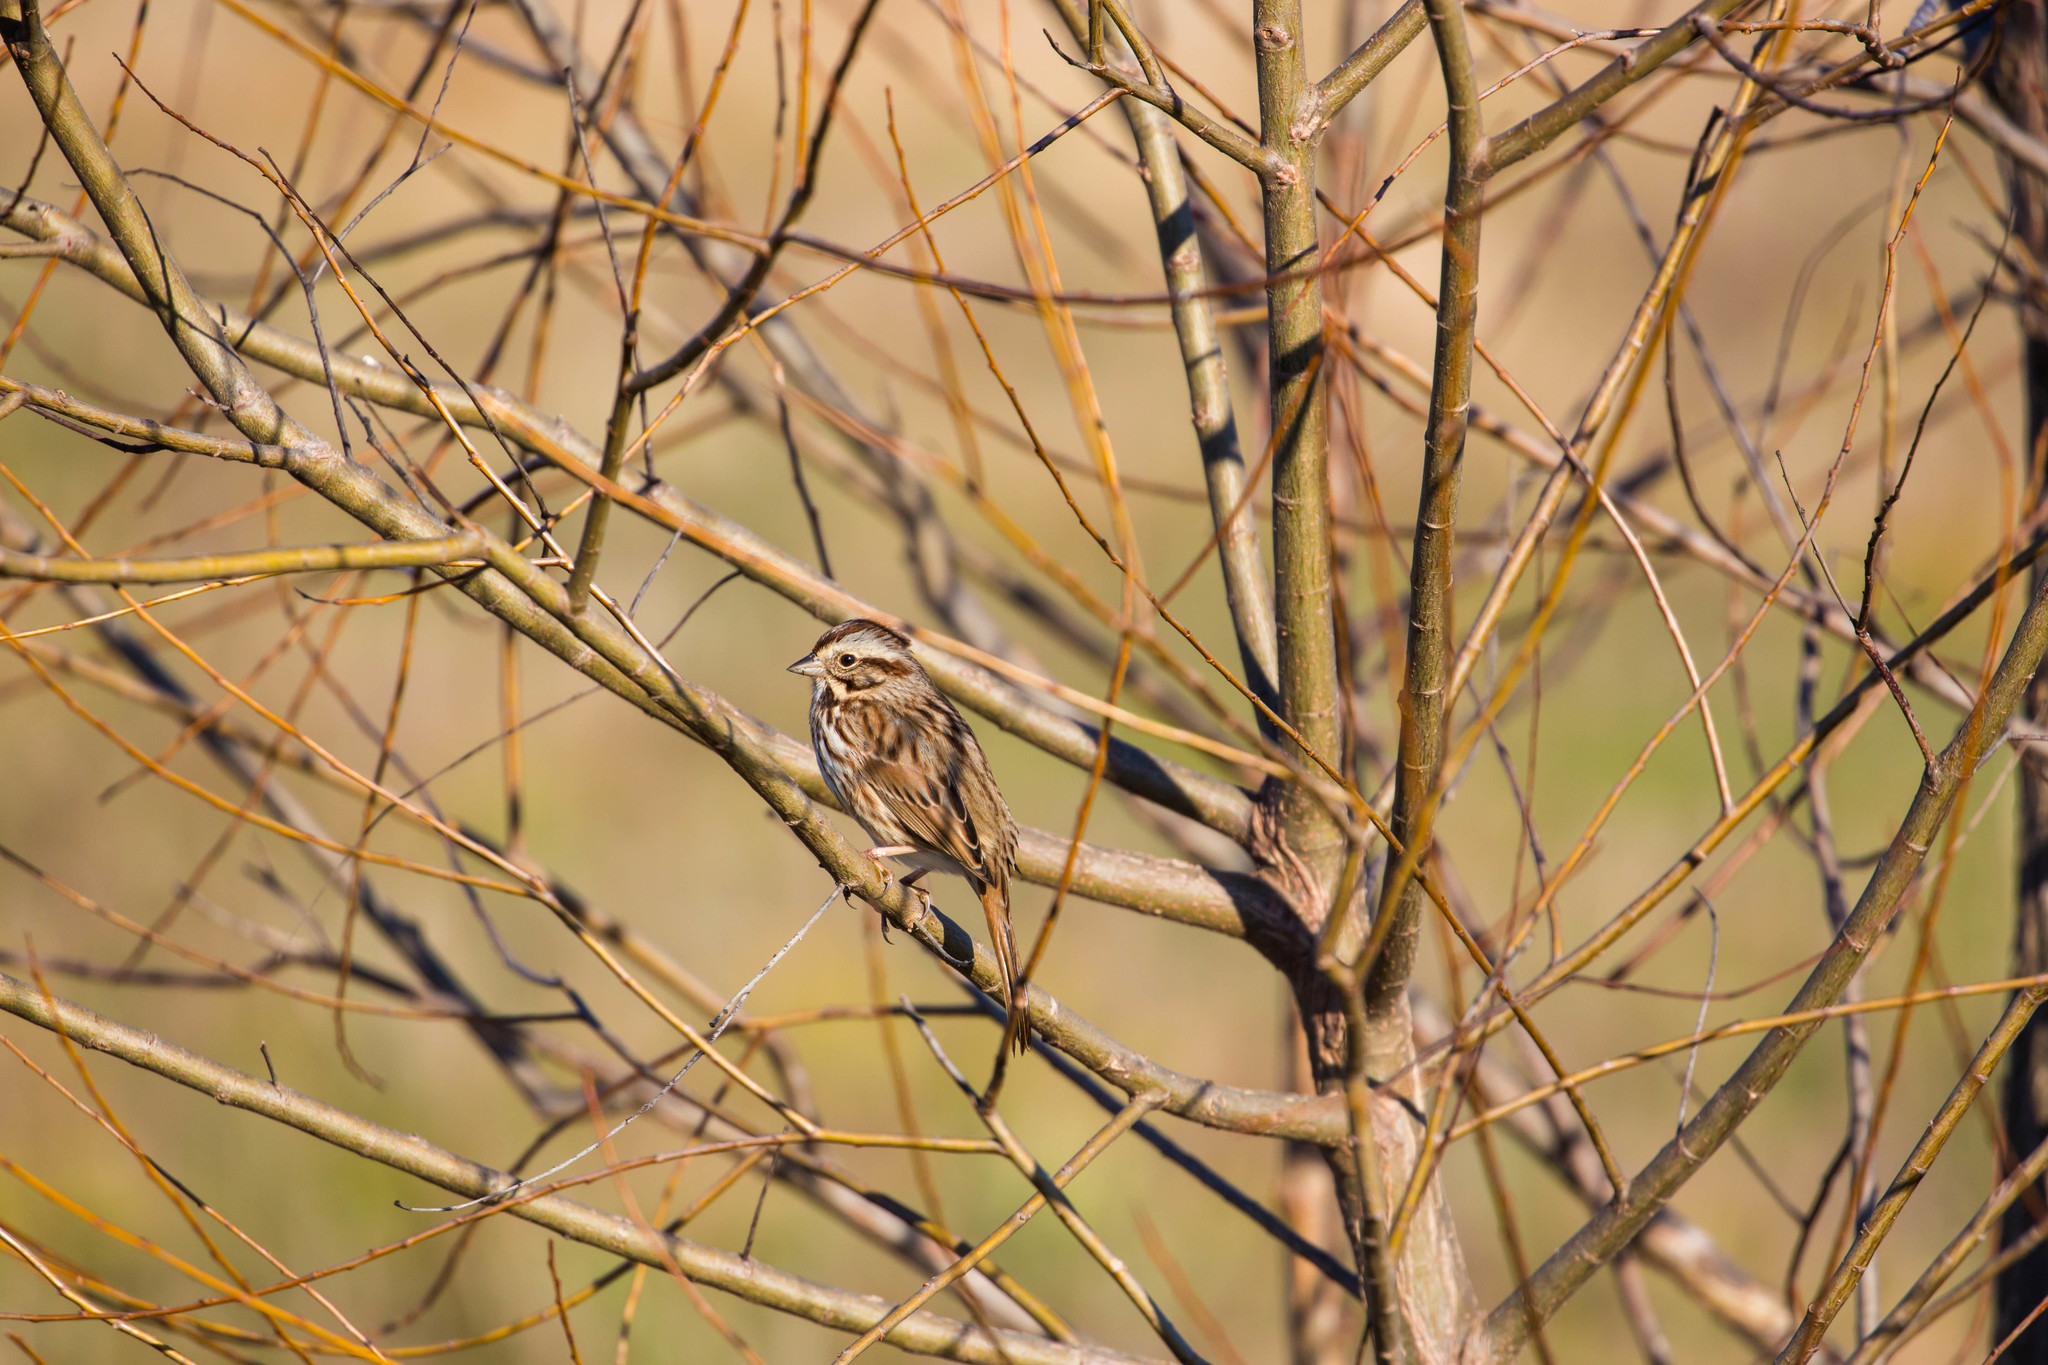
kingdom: Animalia
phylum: Chordata
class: Aves
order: Passeriformes
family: Passerellidae
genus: Melospiza
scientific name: Melospiza melodia
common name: Song sparrow
